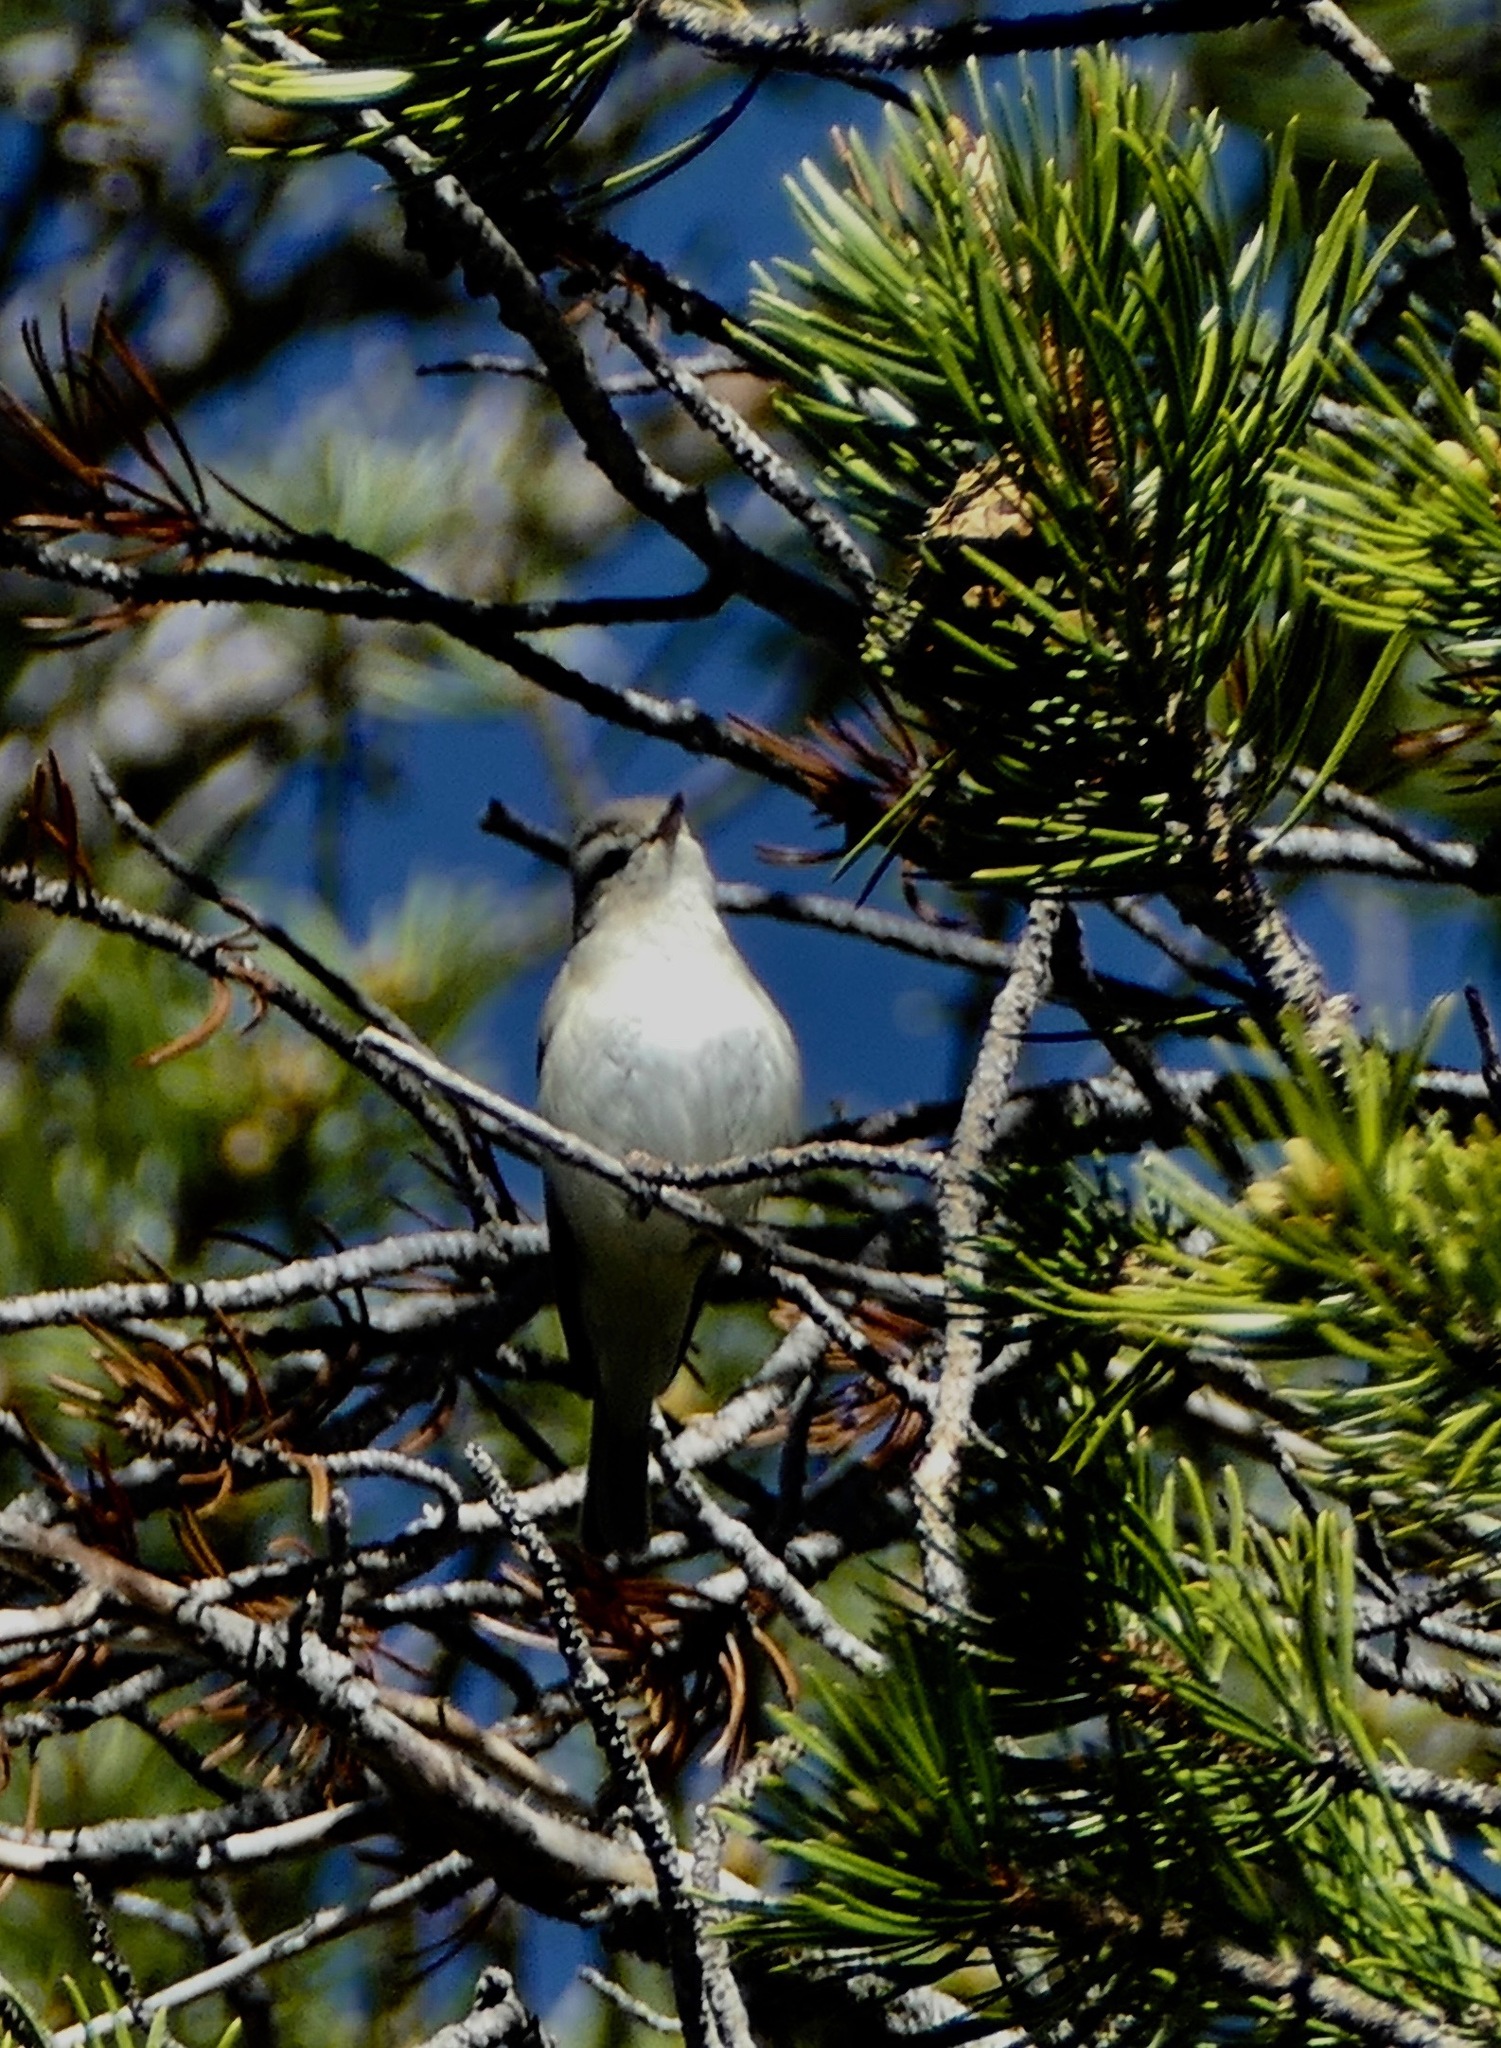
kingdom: Animalia
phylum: Chordata
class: Aves
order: Passeriformes
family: Vireonidae
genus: Vireo
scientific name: Vireo gilvus
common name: Warbling vireo
